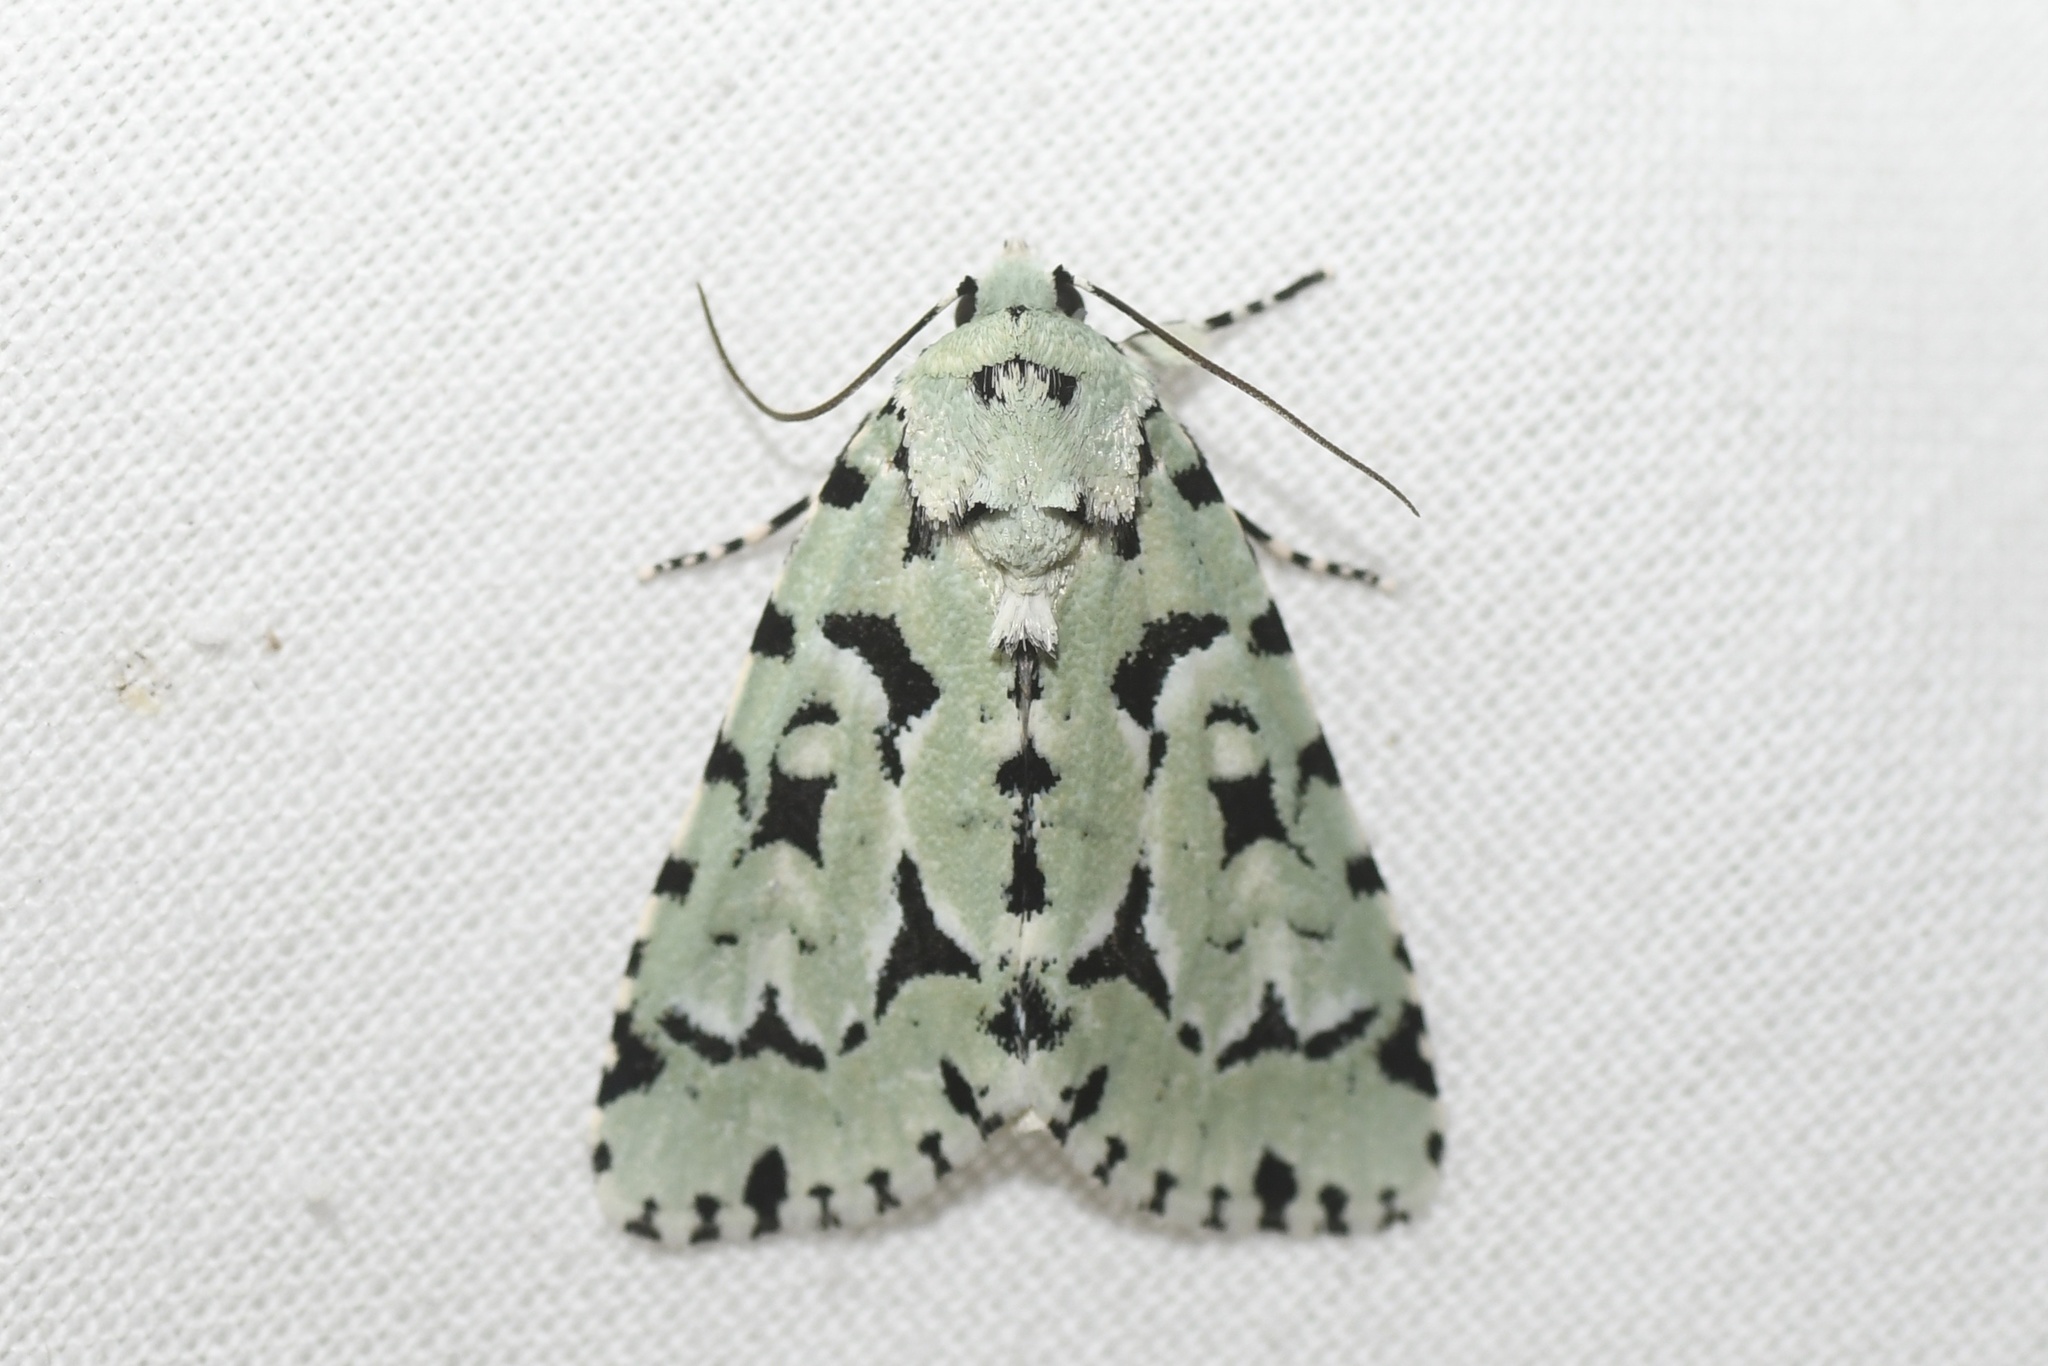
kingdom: Animalia
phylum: Arthropoda
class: Insecta
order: Lepidoptera
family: Noctuidae
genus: Acronicta
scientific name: Acronicta fallax
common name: Green marvel
